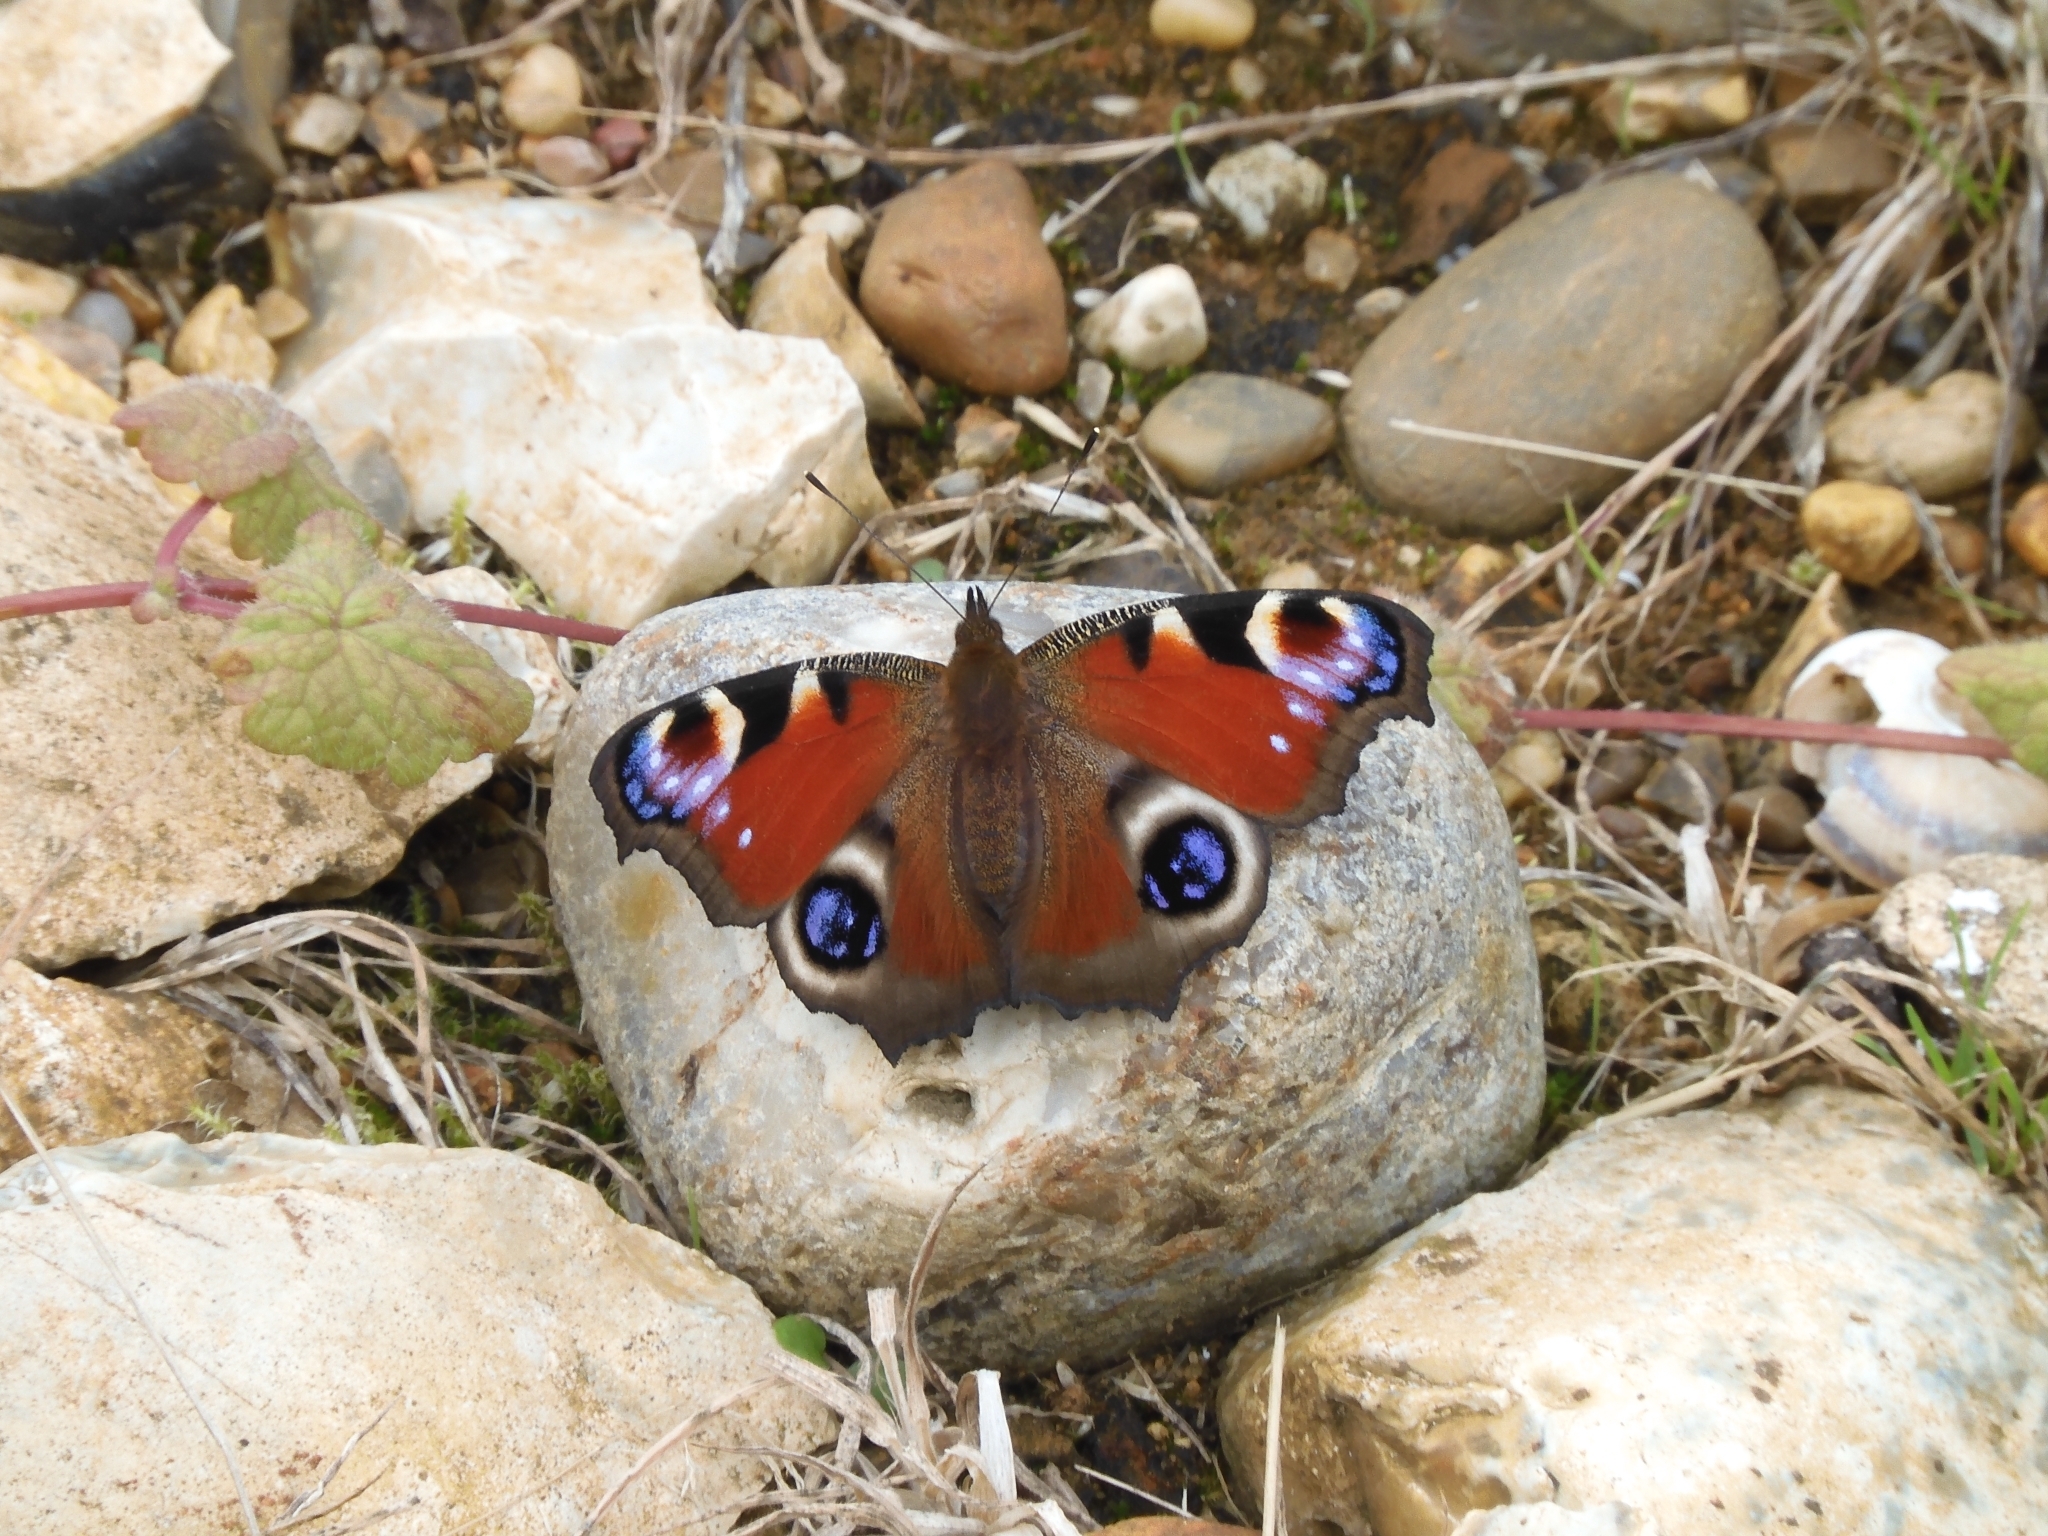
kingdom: Animalia
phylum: Arthropoda
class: Insecta
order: Lepidoptera
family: Nymphalidae
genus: Aglais
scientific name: Aglais io
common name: Peacock
